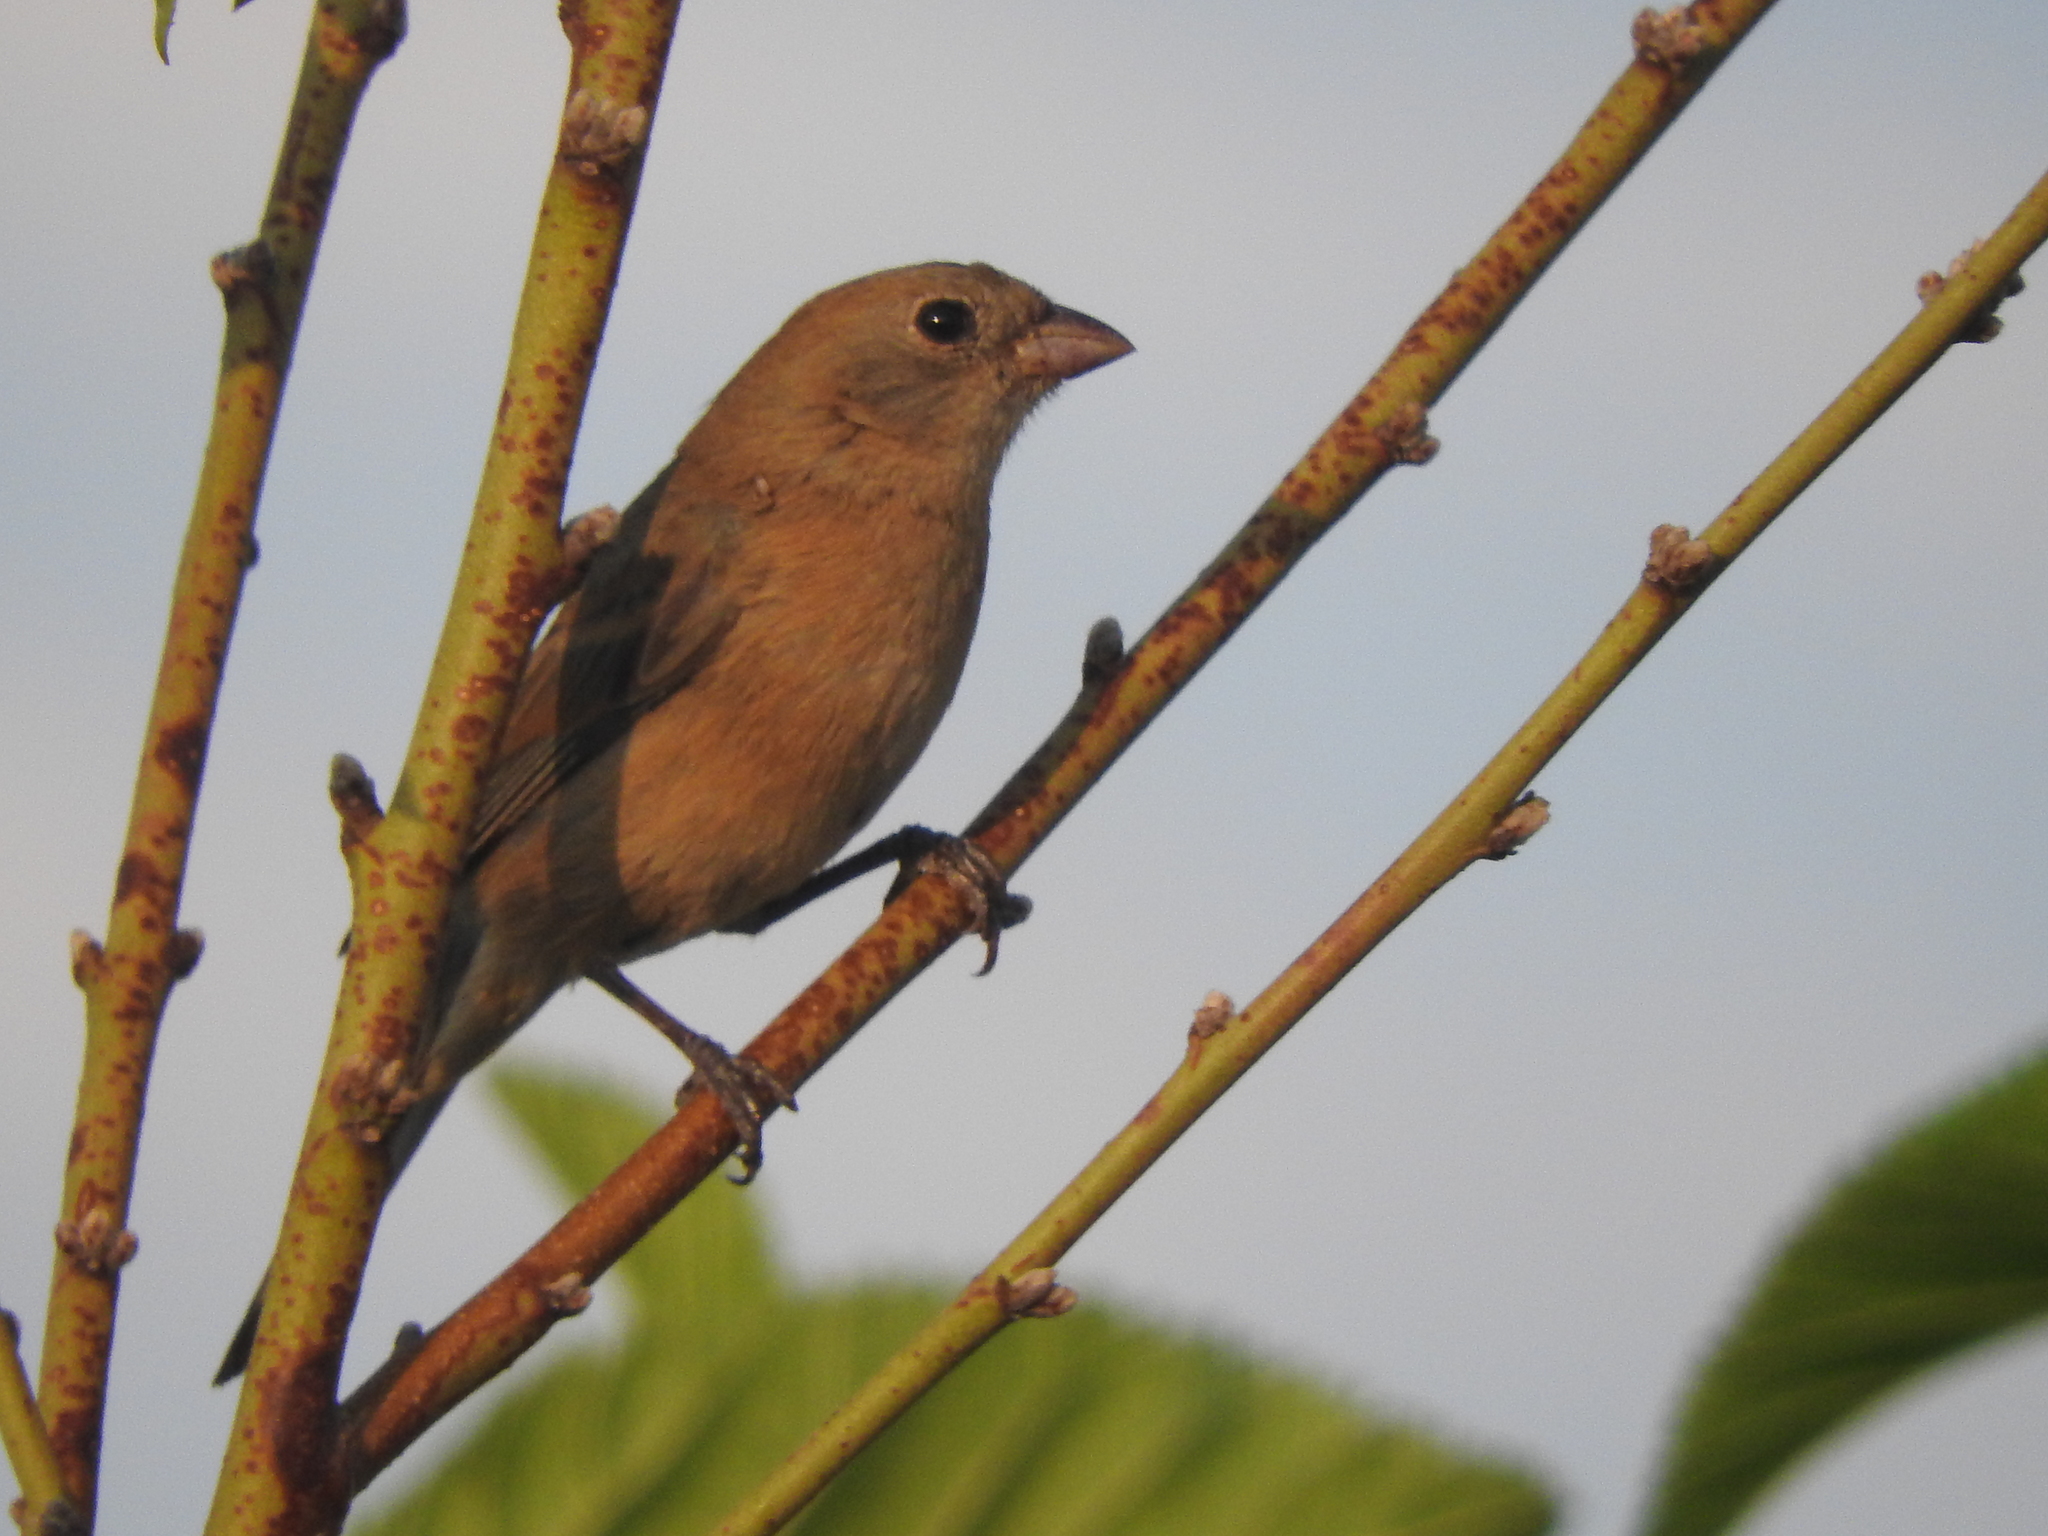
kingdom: Animalia
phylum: Chordata
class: Aves
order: Passeriformes
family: Cardinalidae
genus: Passerina
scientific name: Passerina versicolor
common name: Varied bunting
